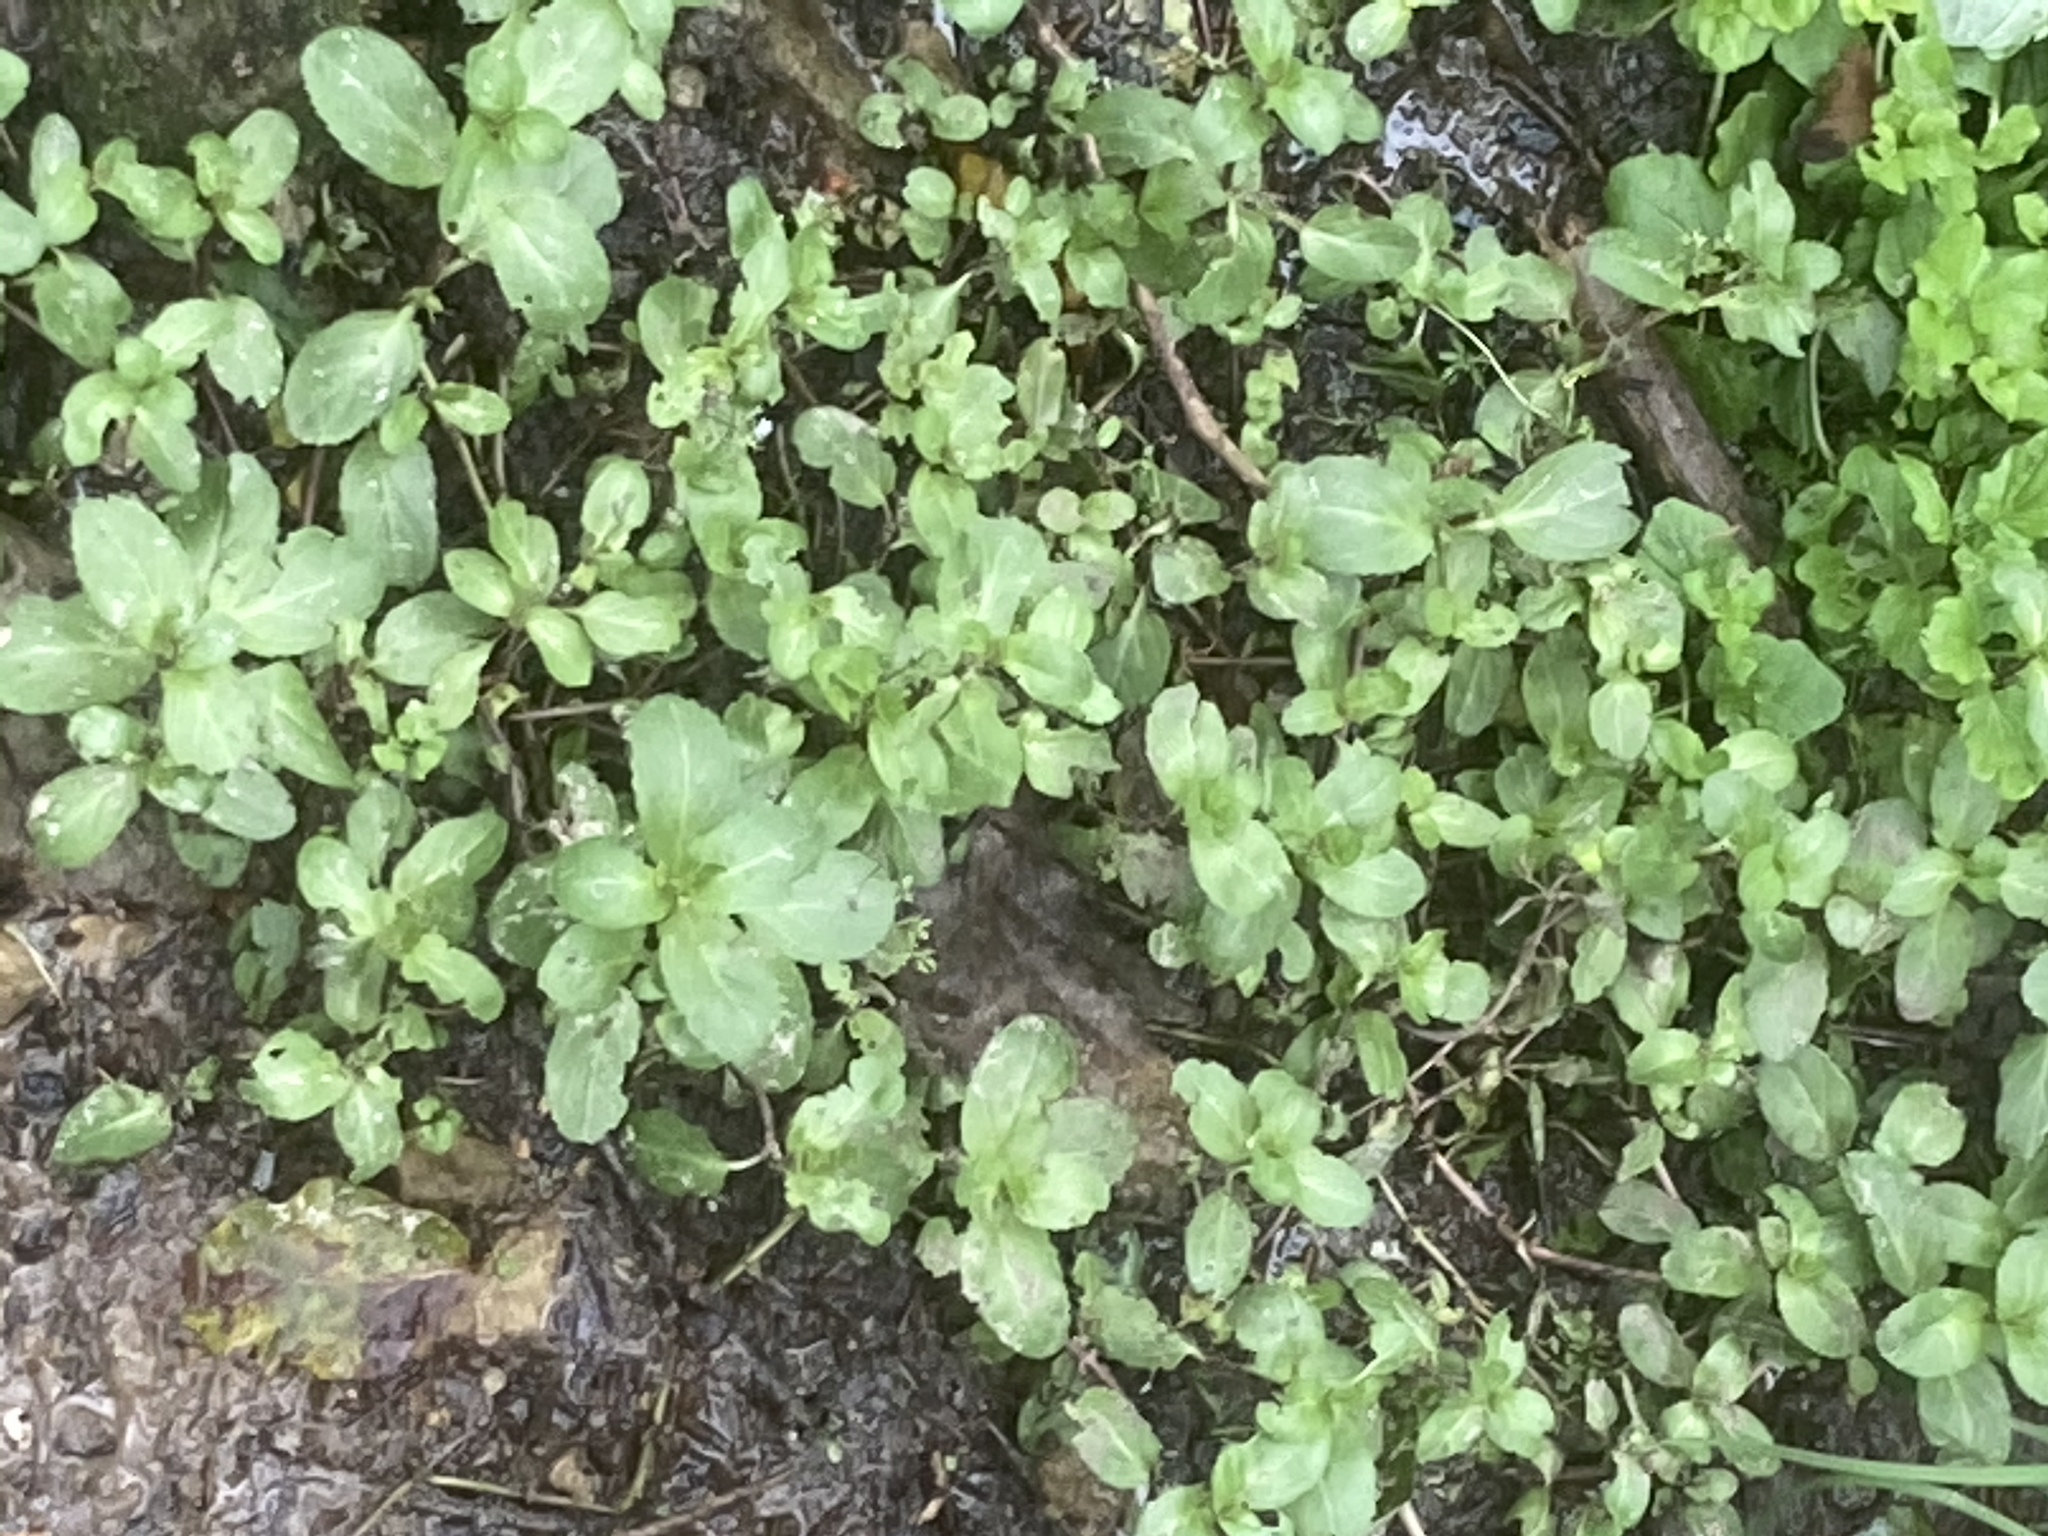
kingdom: Plantae
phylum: Tracheophyta
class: Magnoliopsida
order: Lamiales
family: Plantaginaceae
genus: Veronica
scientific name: Veronica beccabunga
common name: Brooklime
